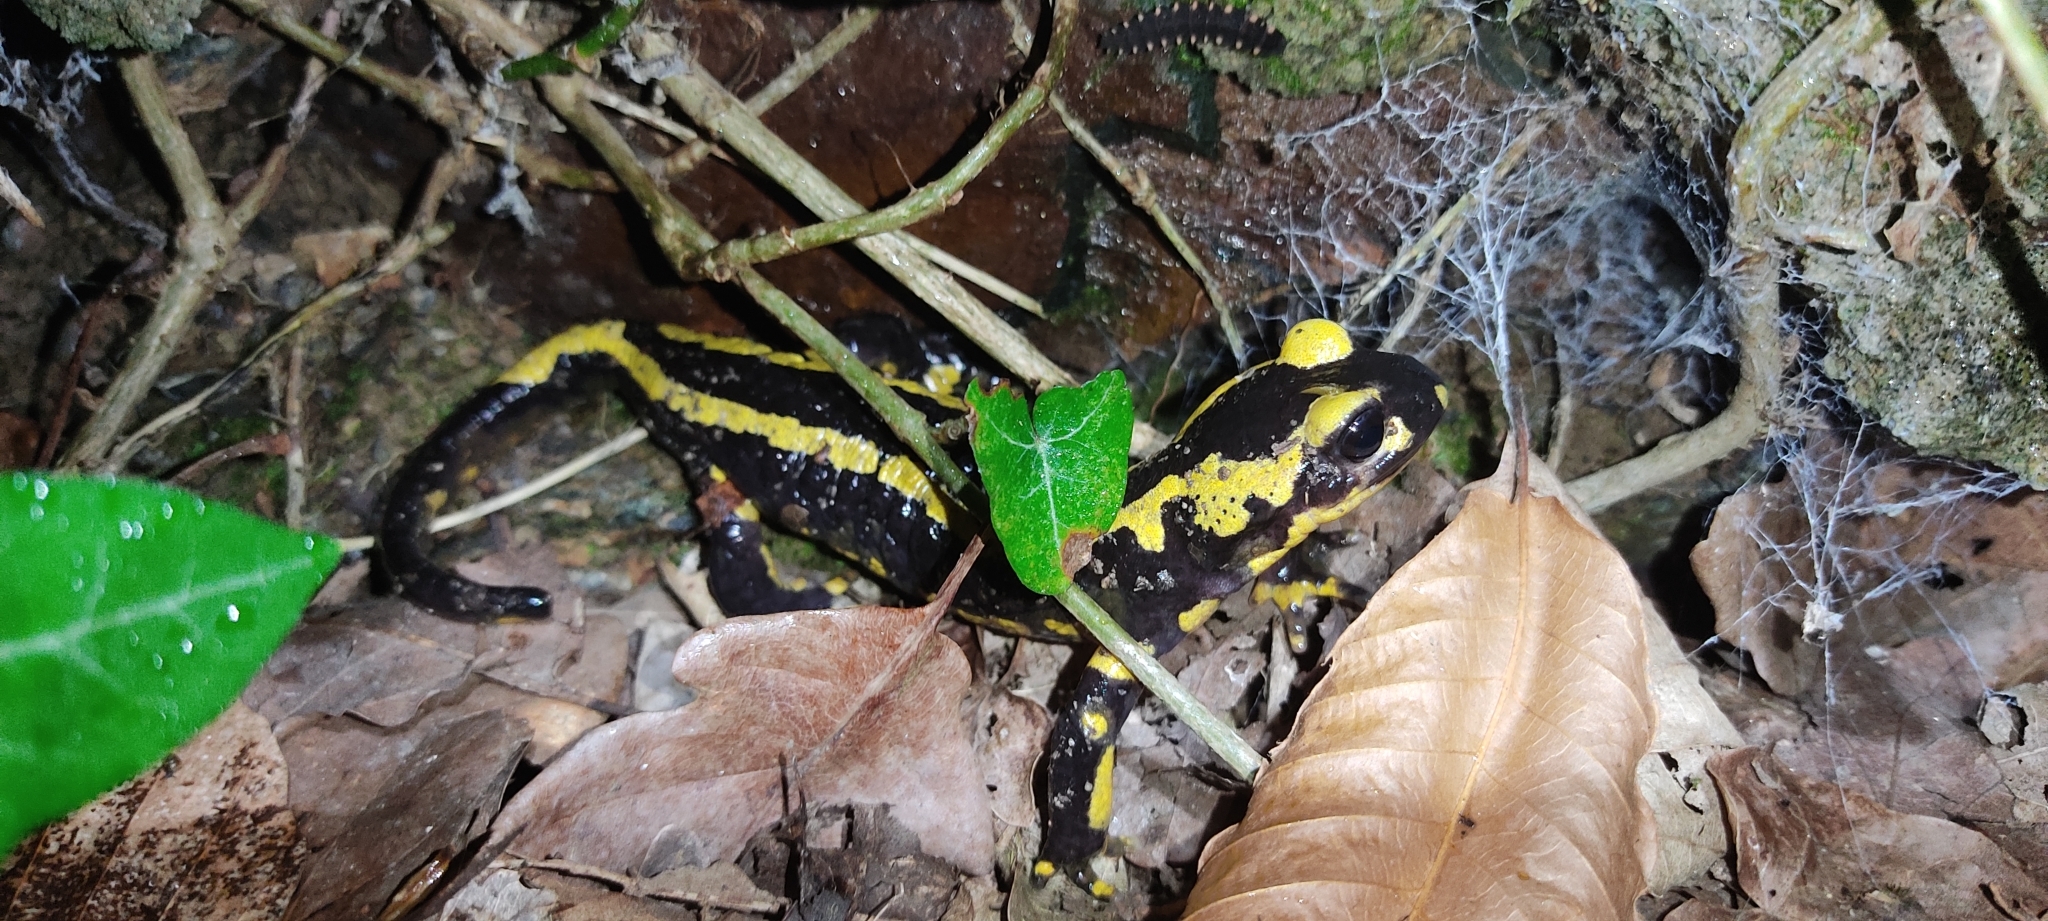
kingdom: Animalia
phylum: Chordata
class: Amphibia
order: Caudata
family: Salamandridae
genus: Salamandra
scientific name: Salamandra salamandra
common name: Fire salamander
